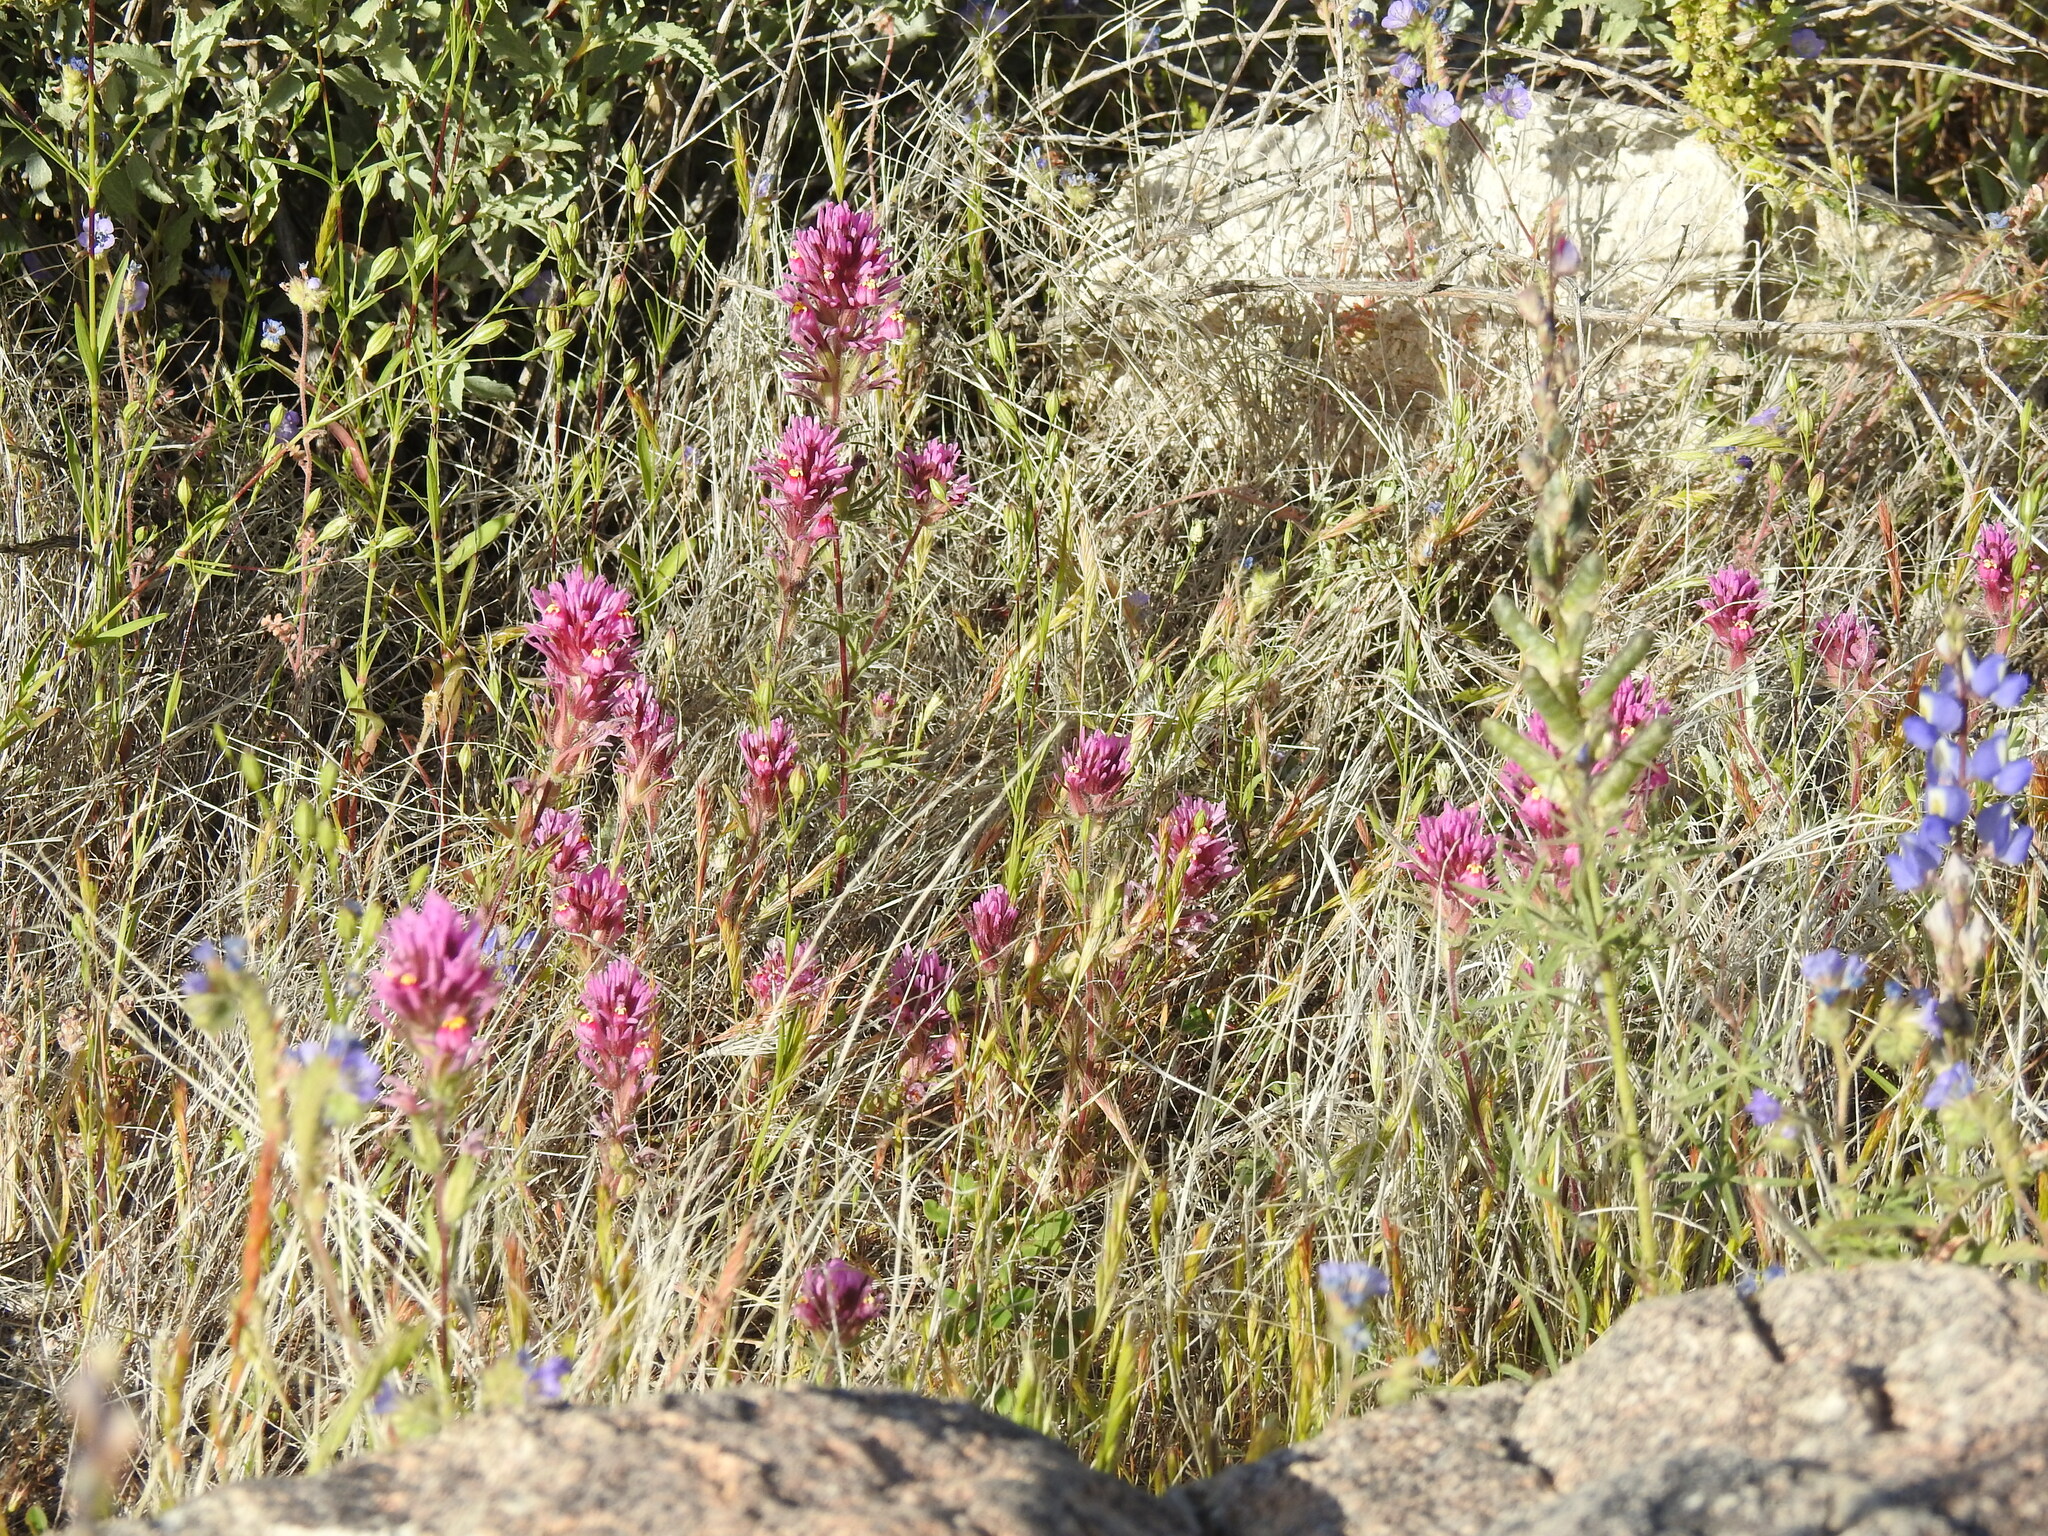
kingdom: Plantae
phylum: Tracheophyta
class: Magnoliopsida
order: Lamiales
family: Orobanchaceae
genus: Castilleja
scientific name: Castilleja exserta
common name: Purple owl-clover
